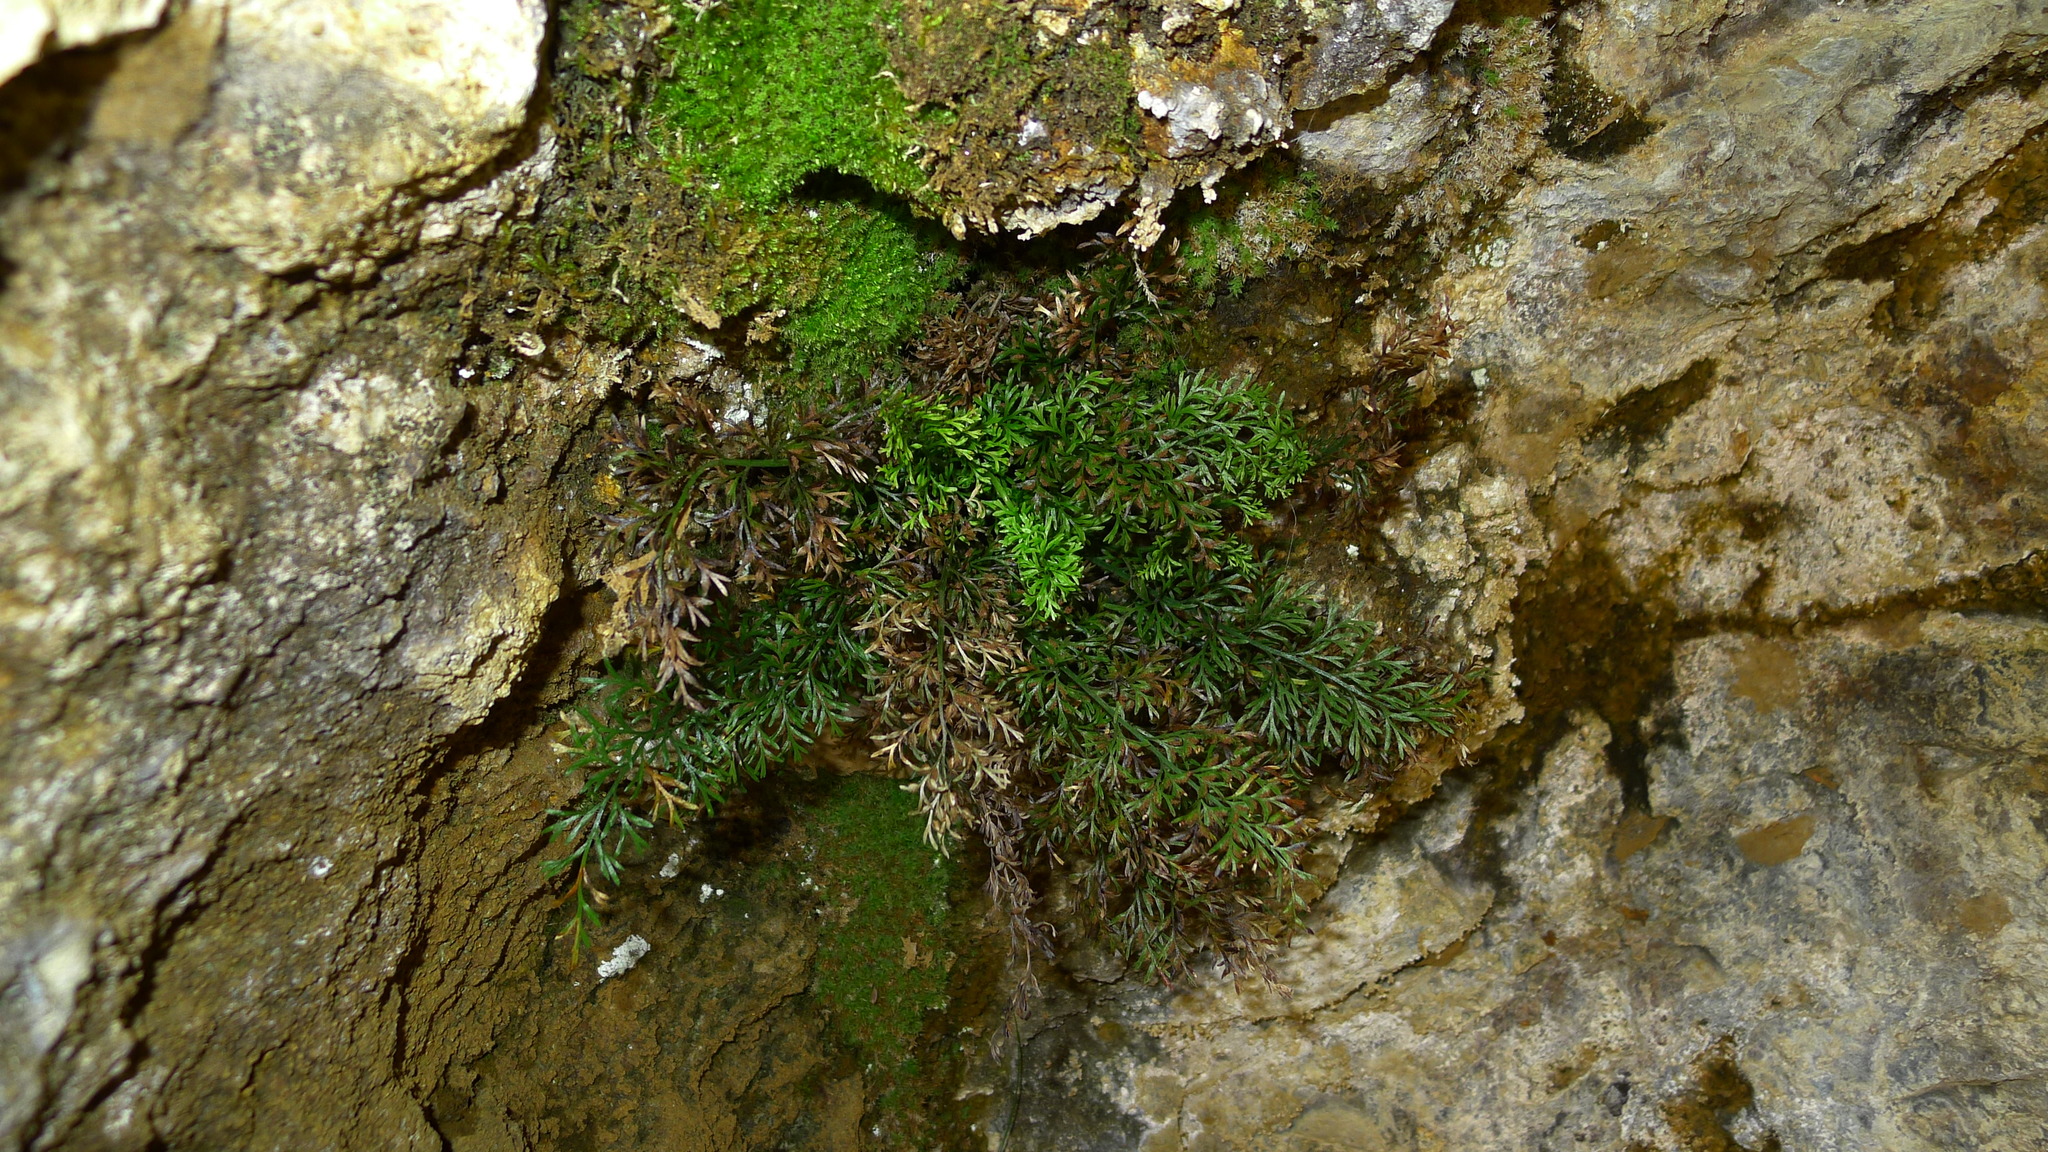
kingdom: Plantae
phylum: Tracheophyta
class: Polypodiopsida
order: Polypodiales
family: Aspleniaceae
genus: Asplenium
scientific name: Asplenium richardii
